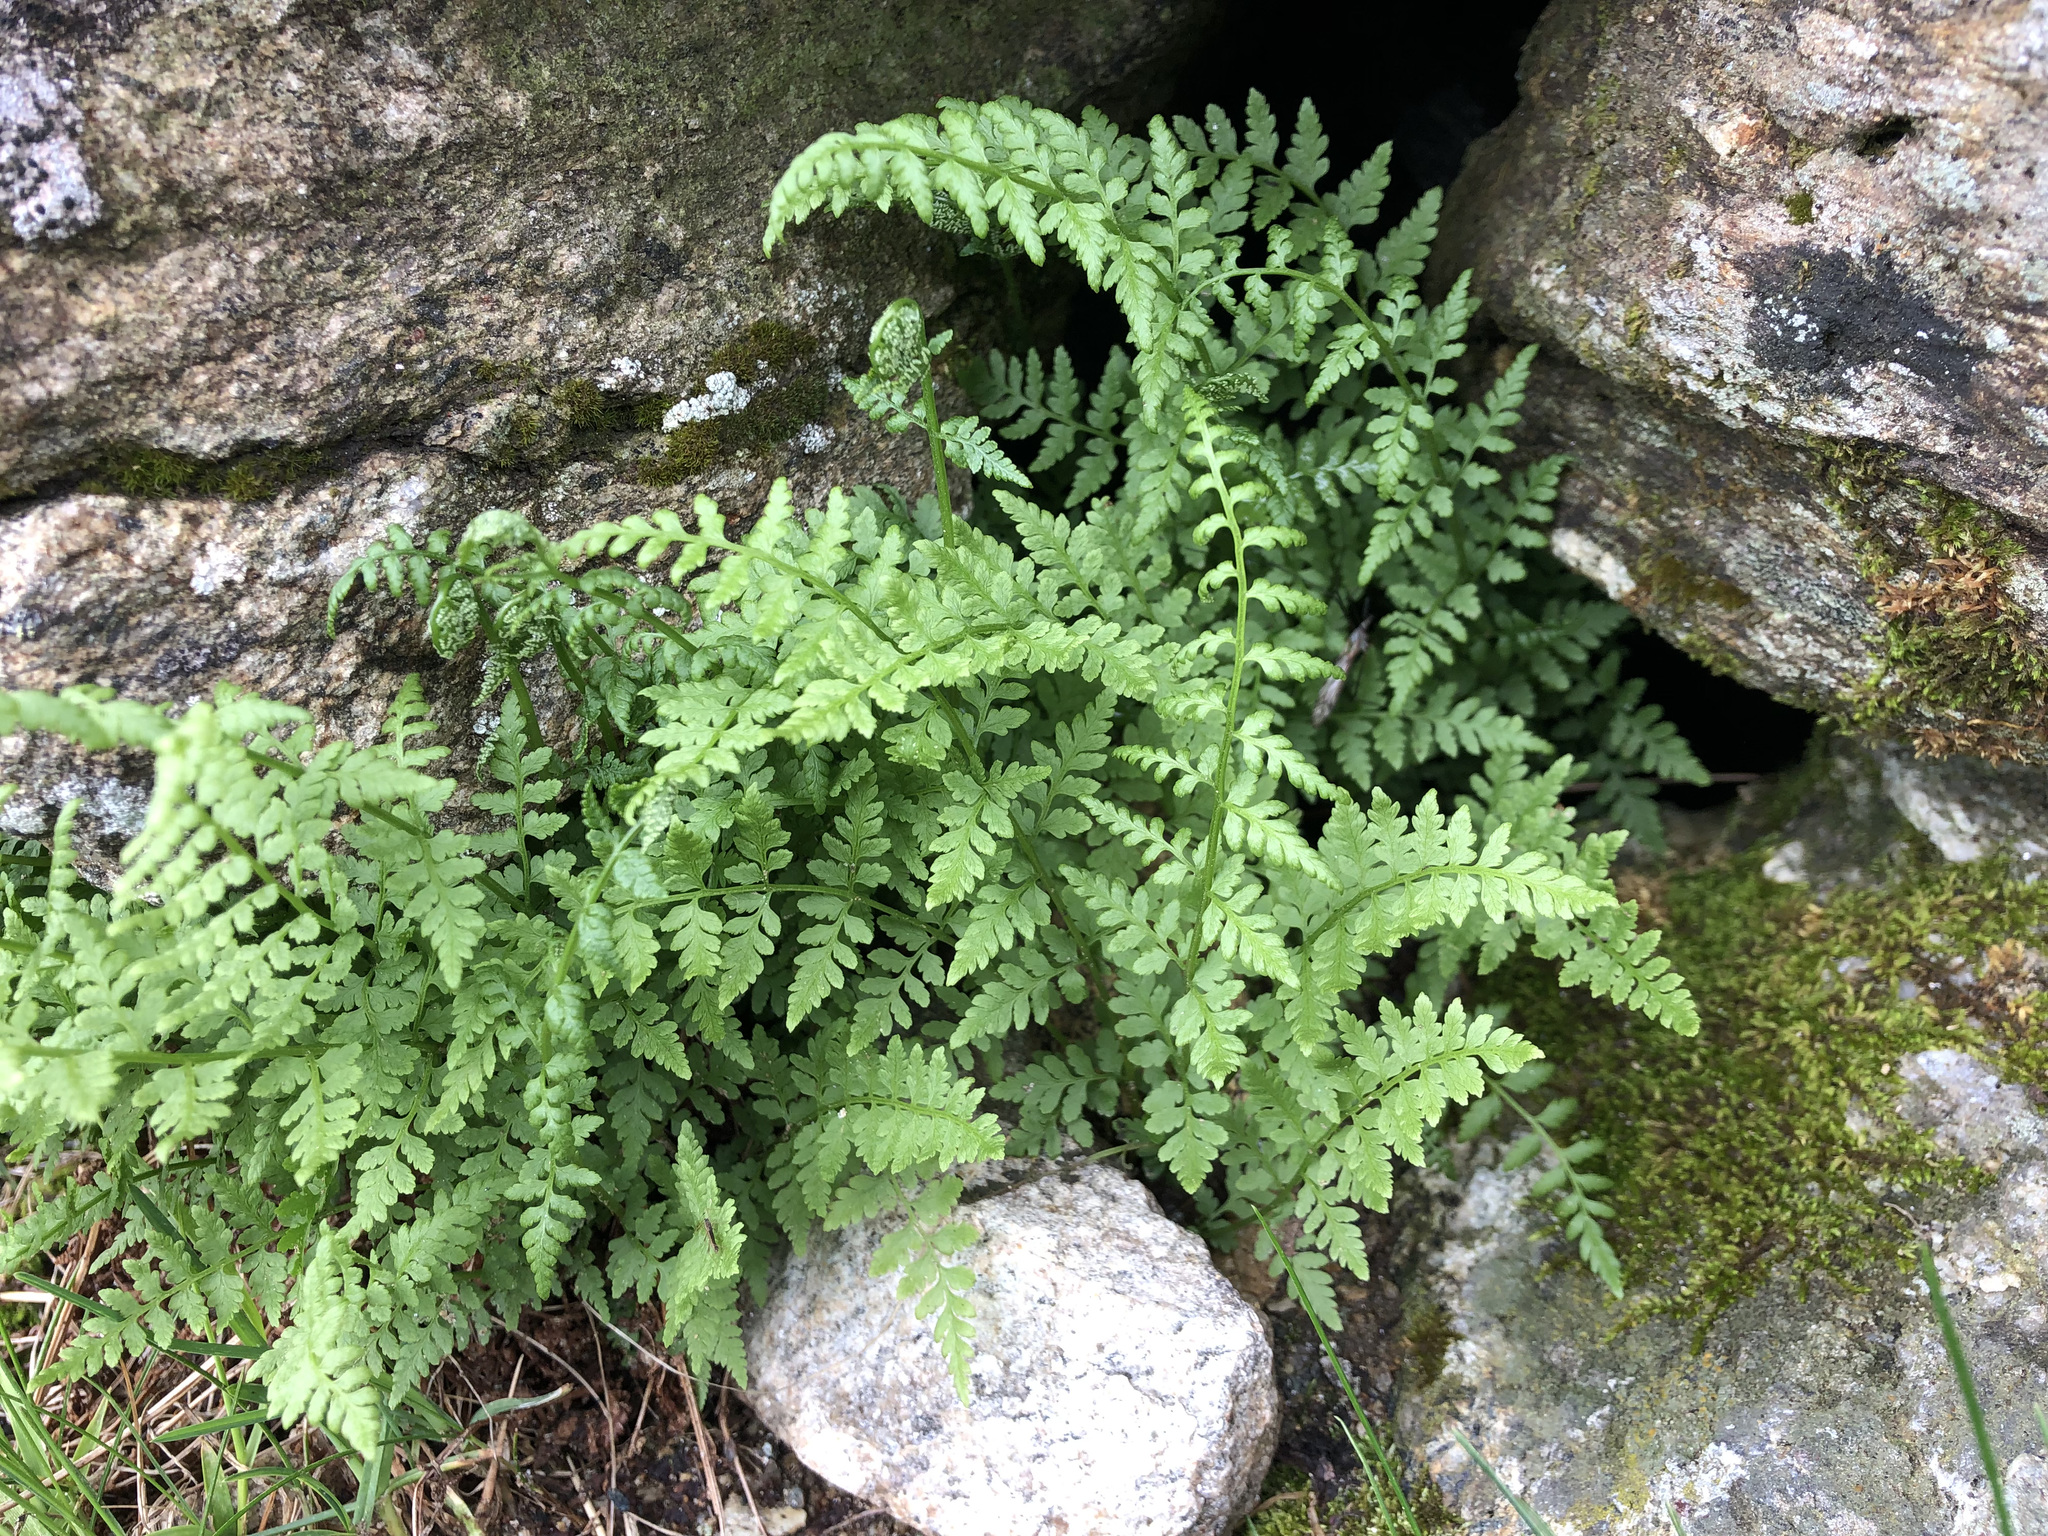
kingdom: Plantae
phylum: Tracheophyta
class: Polypodiopsida
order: Polypodiales
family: Cystopteridaceae
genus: Cystopteris
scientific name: Cystopteris fragilis
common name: Brittle bladder fern
